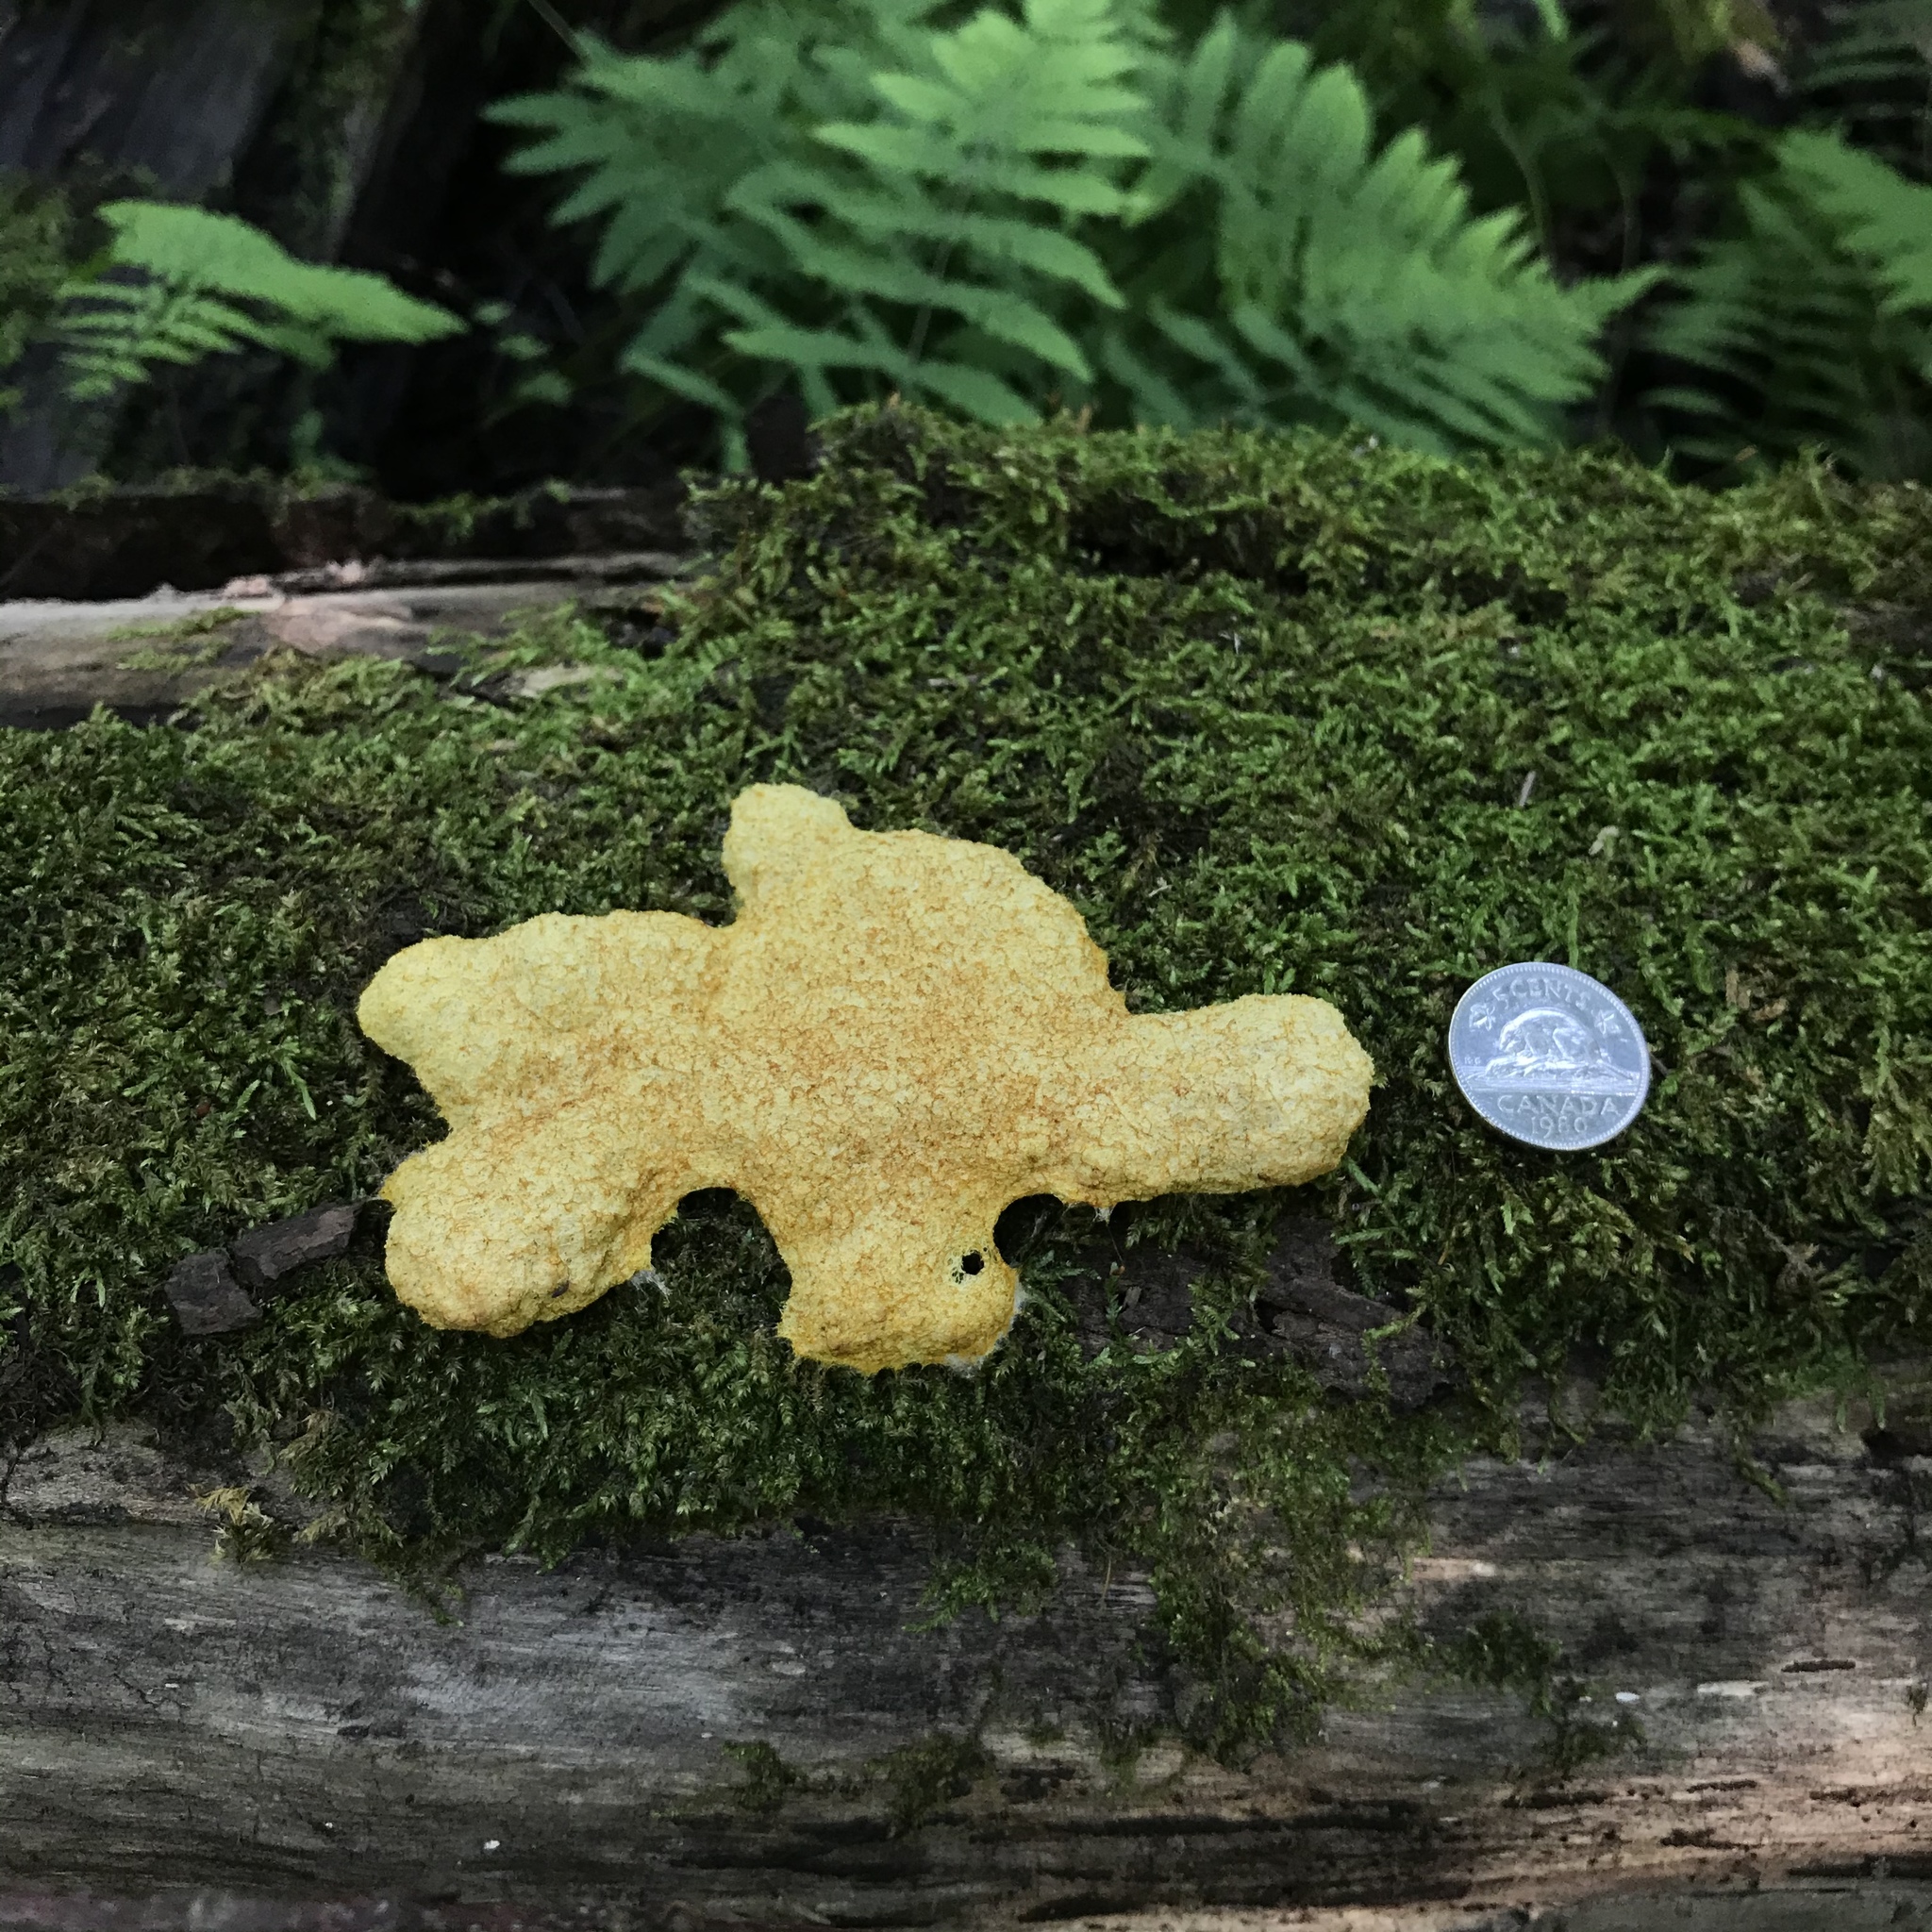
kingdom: Protozoa
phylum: Mycetozoa
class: Myxomycetes
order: Physarales
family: Physaraceae
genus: Fuligo
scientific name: Fuligo septica
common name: Dog vomit slime mold
